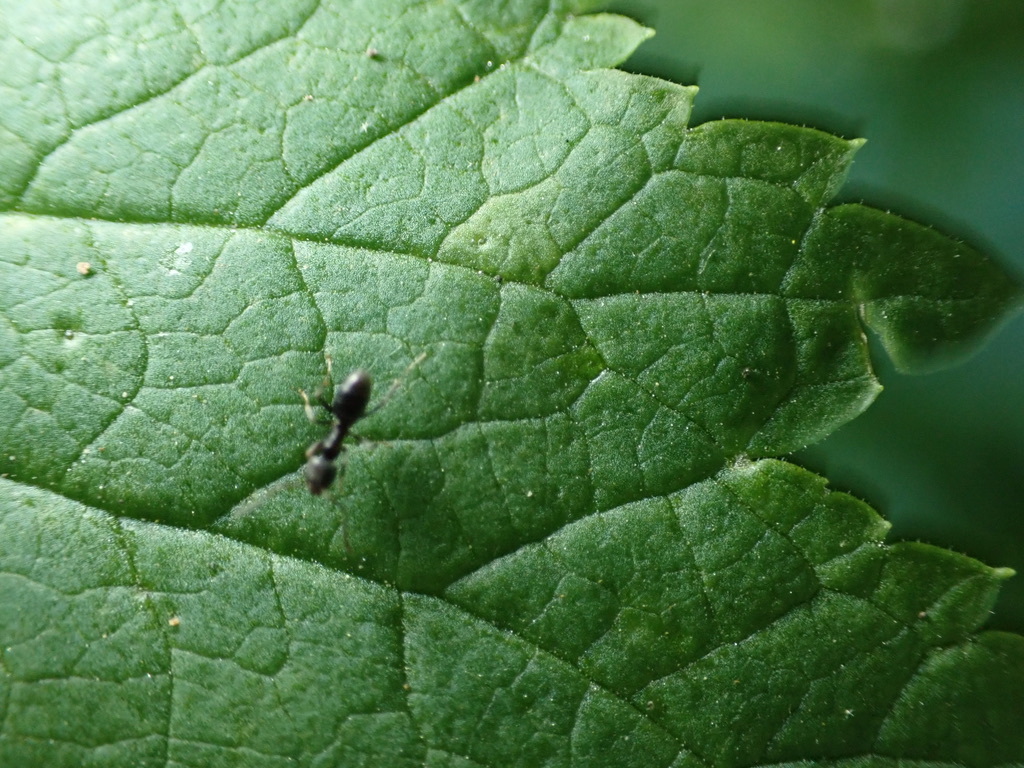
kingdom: Animalia
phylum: Arthropoda
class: Insecta
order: Hymenoptera
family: Formicidae
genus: Tapinoma
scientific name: Tapinoma sessile
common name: Odorous house ant
